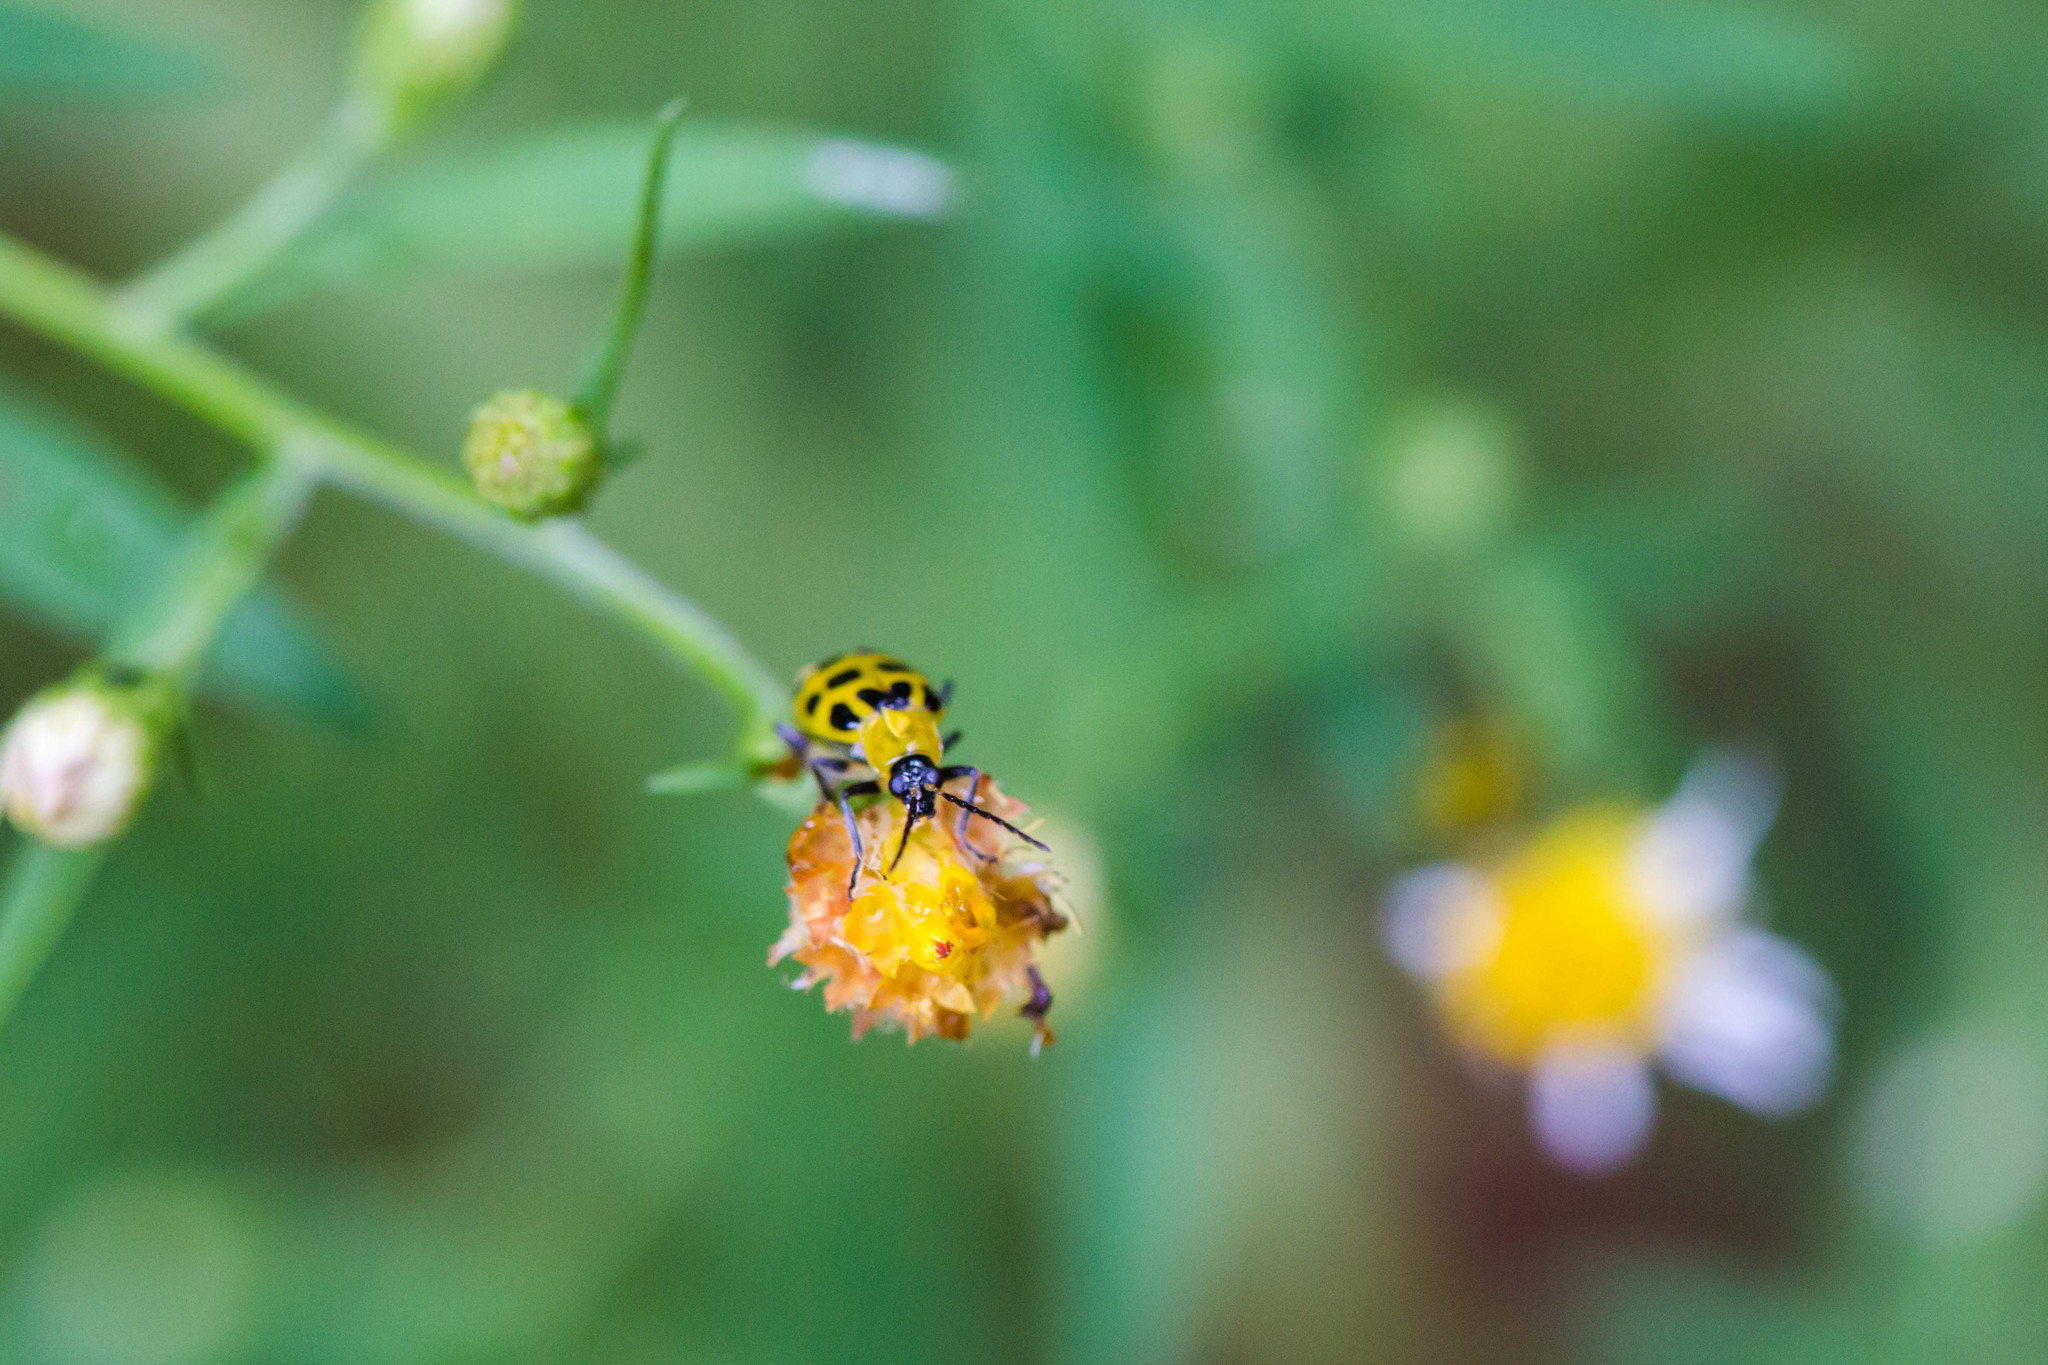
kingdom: Animalia
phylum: Arthropoda
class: Insecta
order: Coleoptera
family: Chrysomelidae
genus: Diabrotica
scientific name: Diabrotica undecimpunctata
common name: Spotted cucumber beetle
